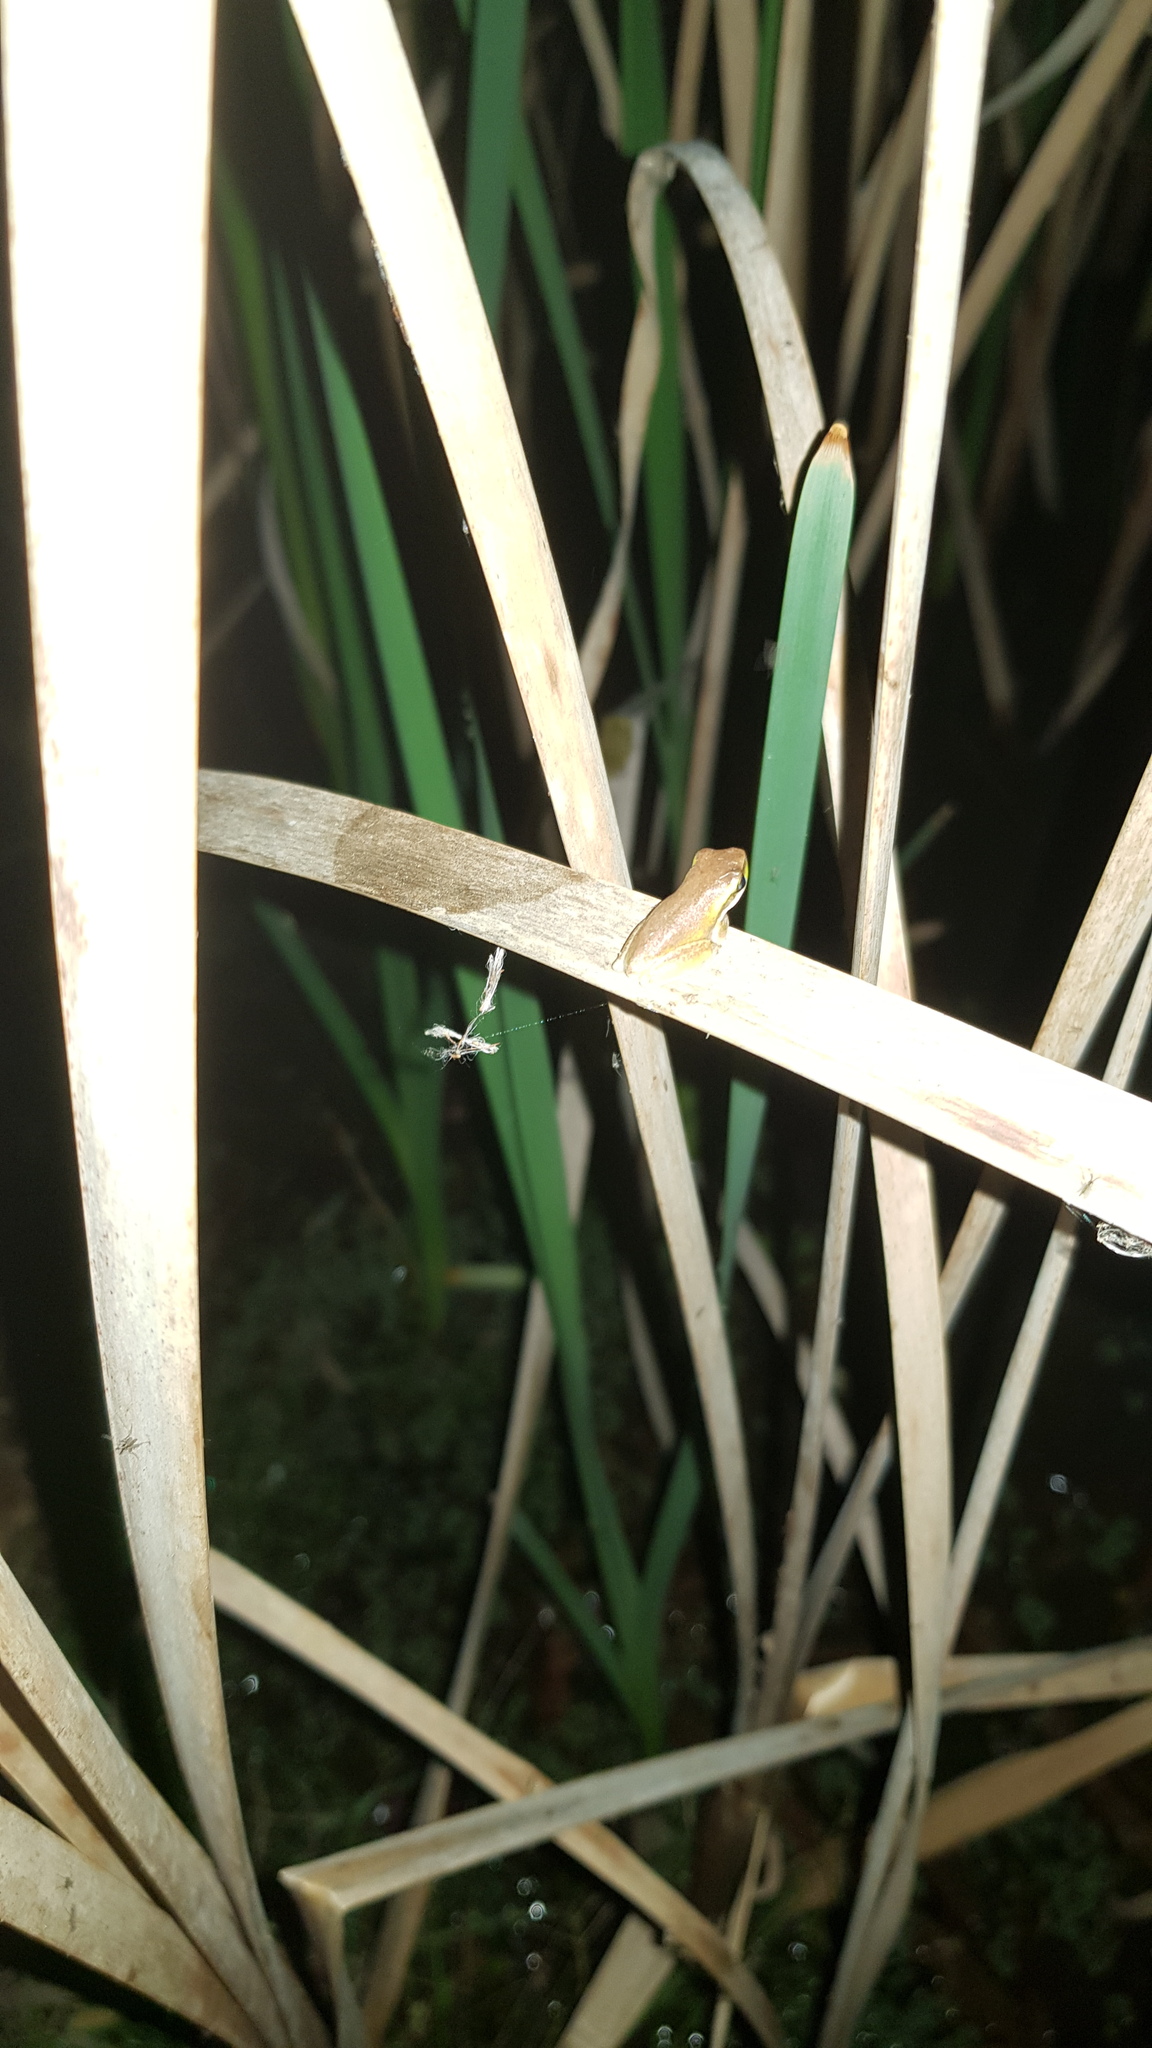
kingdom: Animalia
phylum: Chordata
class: Amphibia
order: Anura
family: Pelodryadidae
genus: Litoria
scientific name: Litoria fallax
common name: Eastern dwarf treefrog
